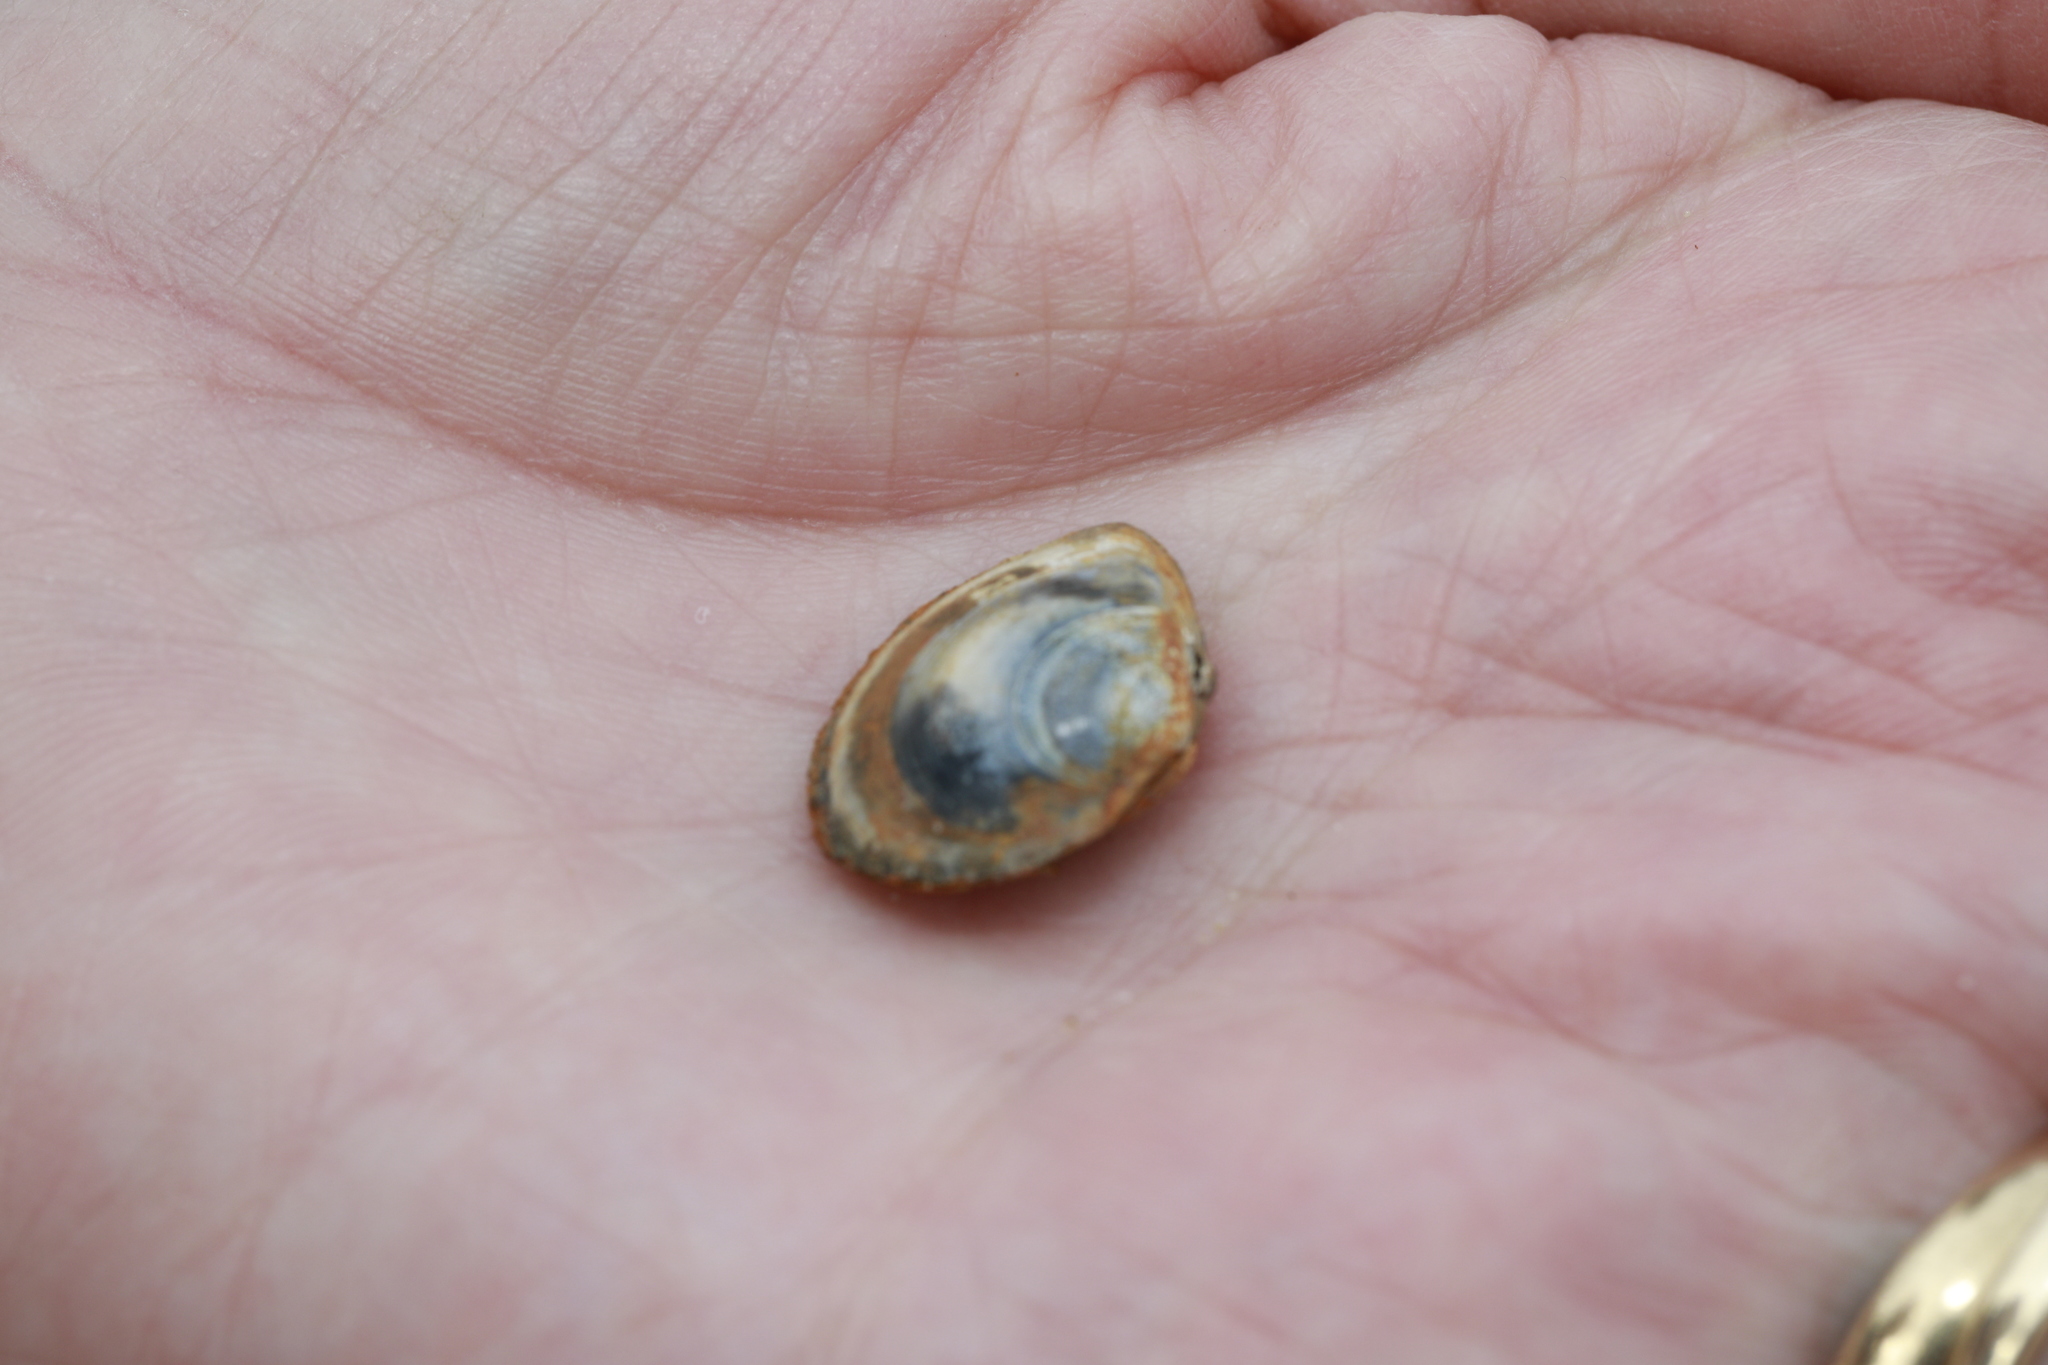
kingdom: Animalia
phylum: Mollusca
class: Bivalvia
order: Cardiida
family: Tellinidae
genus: Macoma
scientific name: Macoma balthica
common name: Baltic tellin
